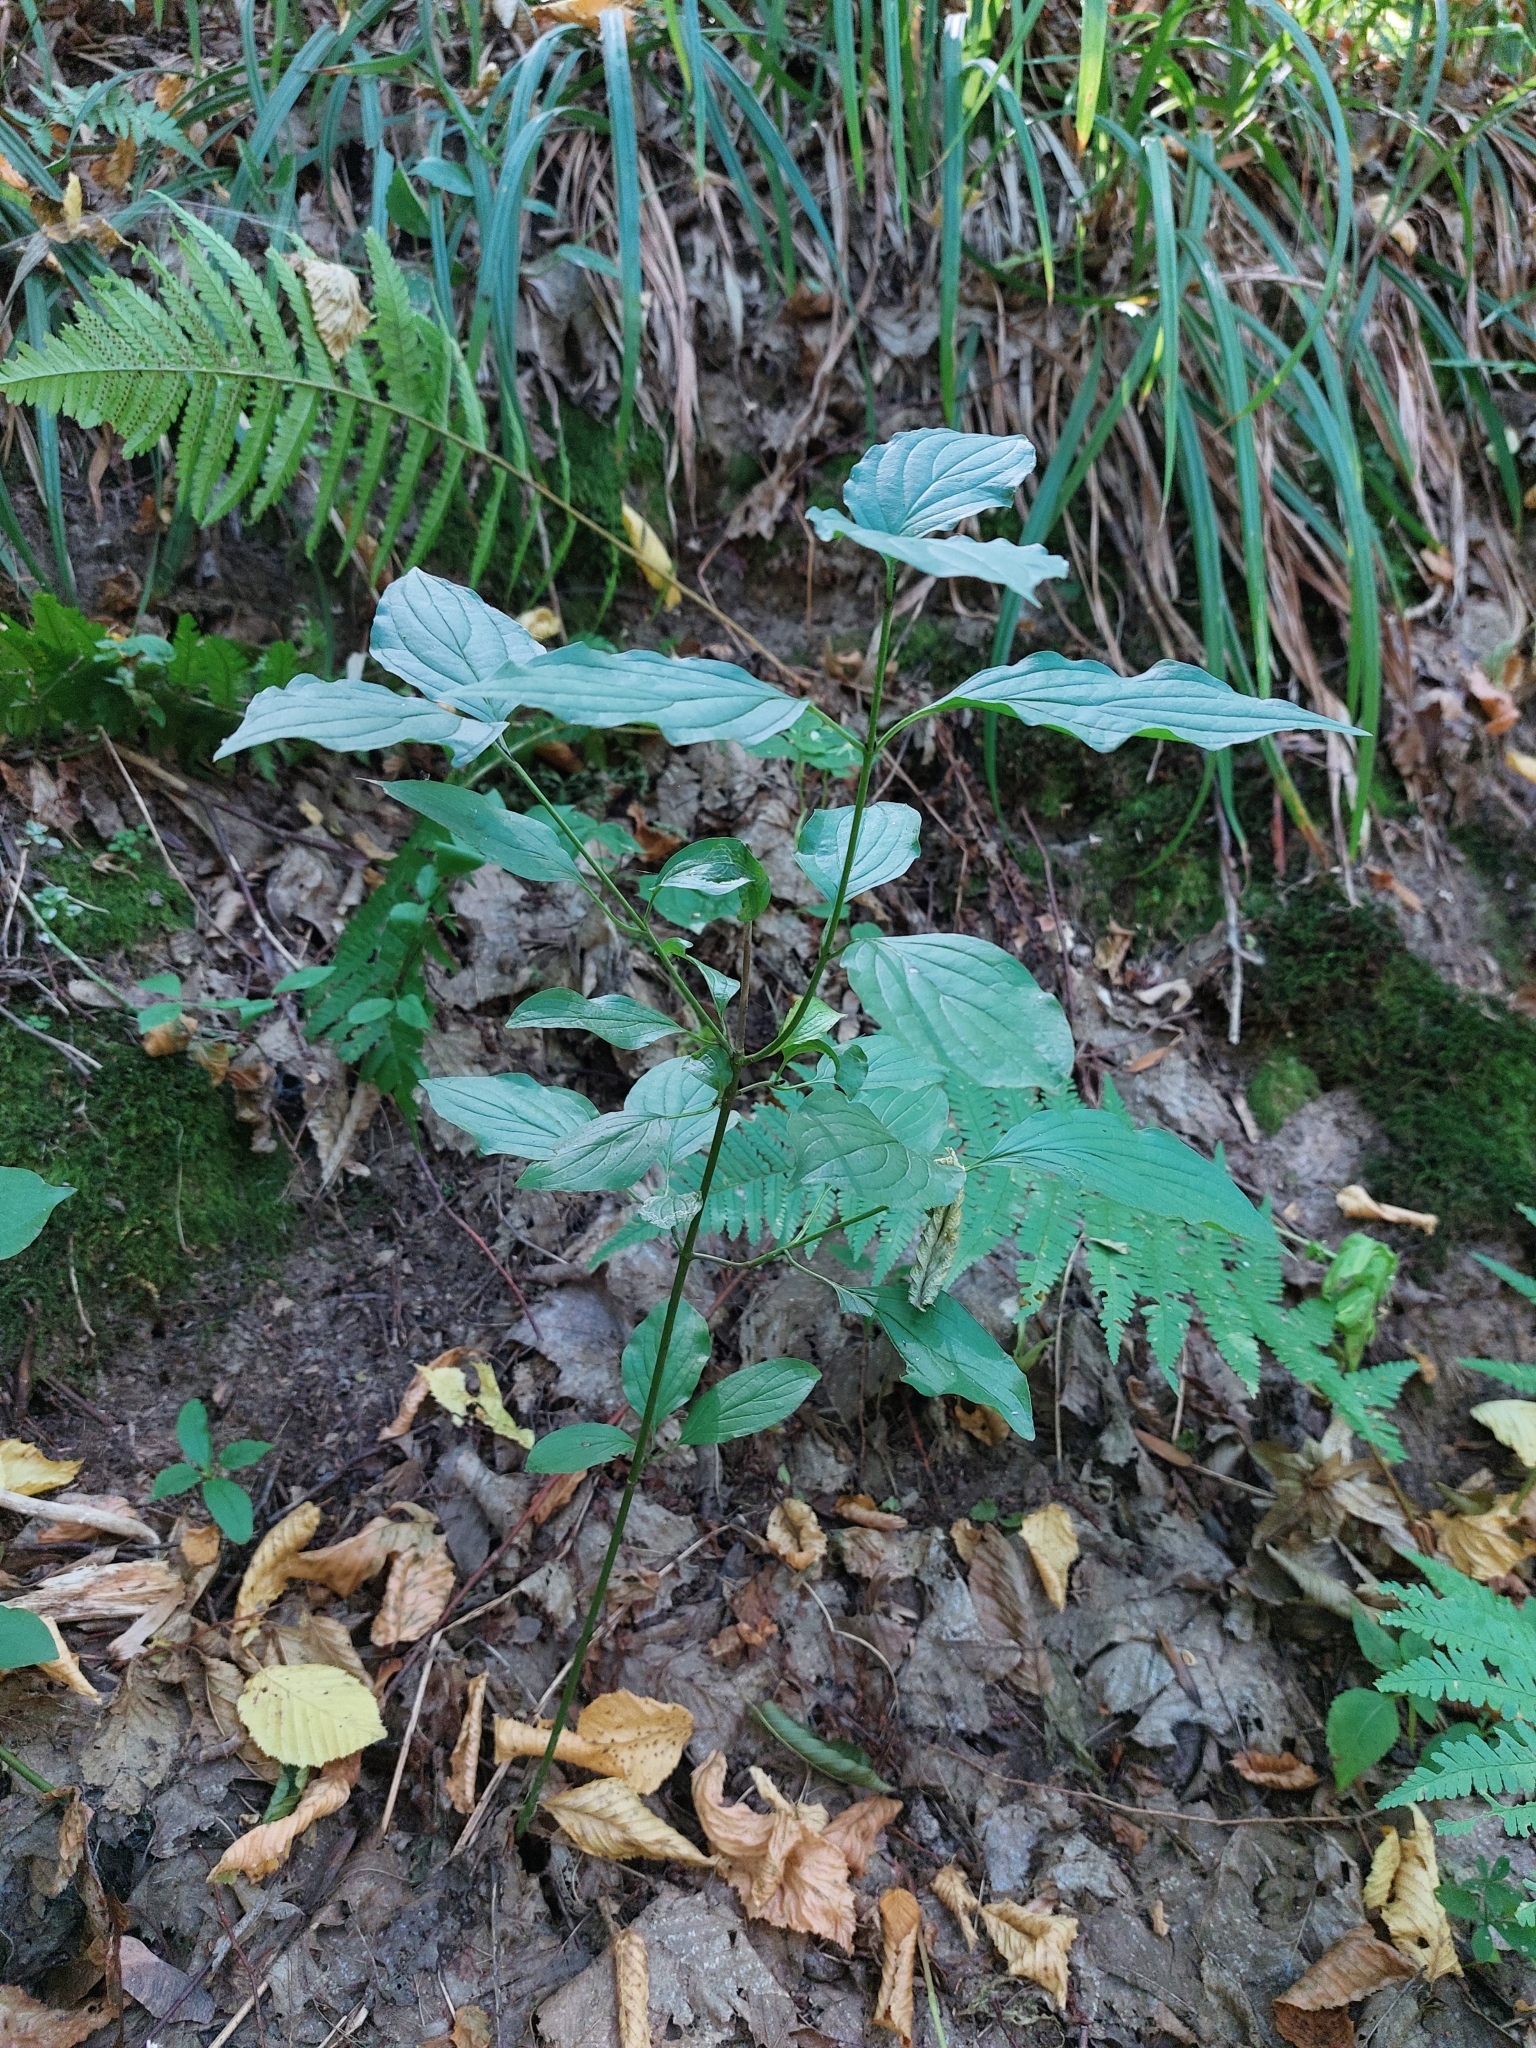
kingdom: Plantae
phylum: Tracheophyta
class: Magnoliopsida
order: Cornales
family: Cornaceae
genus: Cornus
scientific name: Cornus sanguinea
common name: Dogwood
